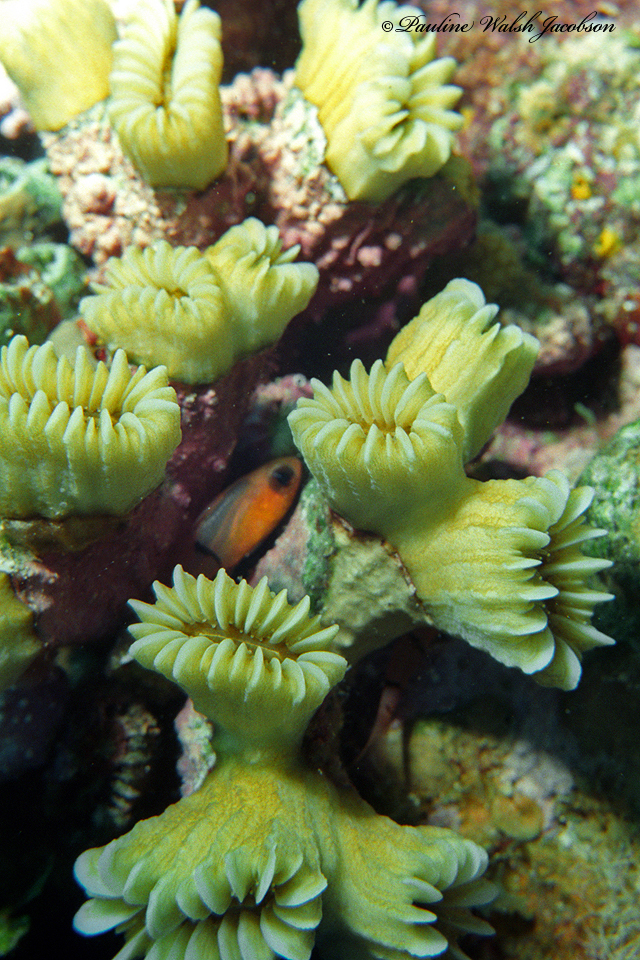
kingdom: Animalia
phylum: Cnidaria
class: Anthozoa
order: Scleractinia
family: Meandrinidae
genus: Eusmilia
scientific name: Eusmilia fastigiata
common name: Smooth flower coral
